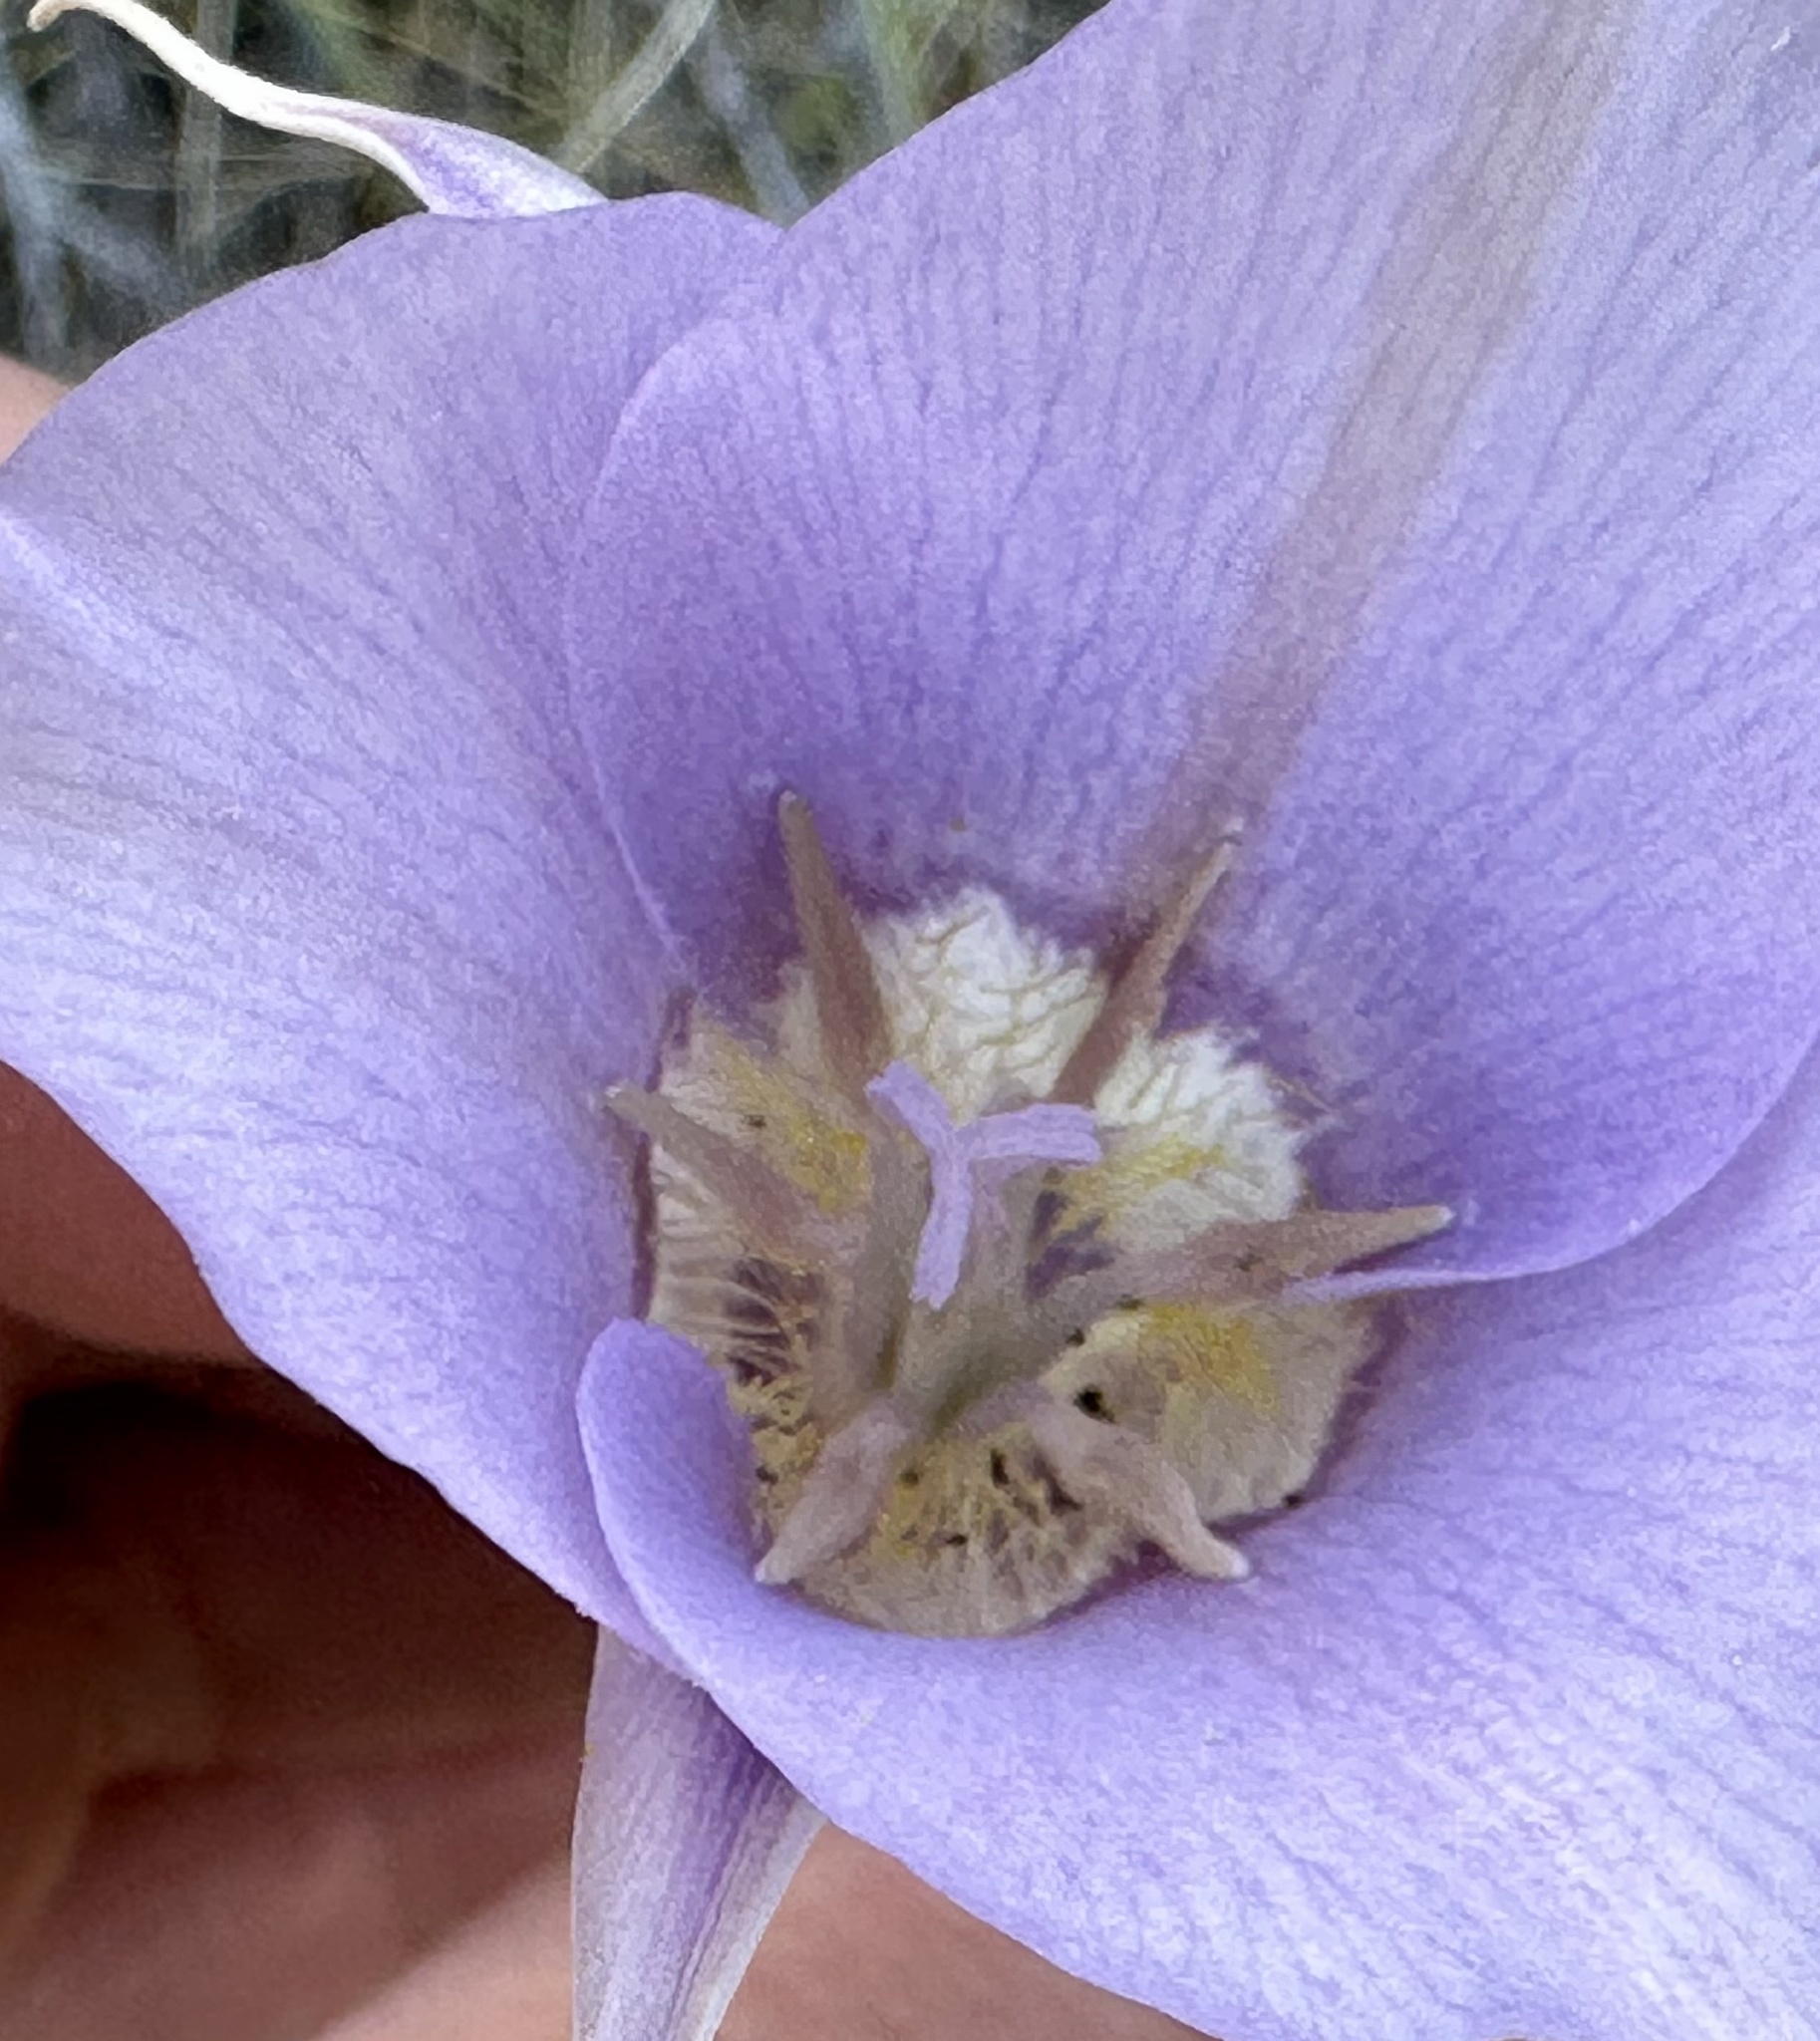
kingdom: Plantae
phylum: Tracheophyta
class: Liliopsida
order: Liliales
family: Liliaceae
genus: Calochortus
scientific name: Calochortus macrocarpus
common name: Green-band mariposa lily
